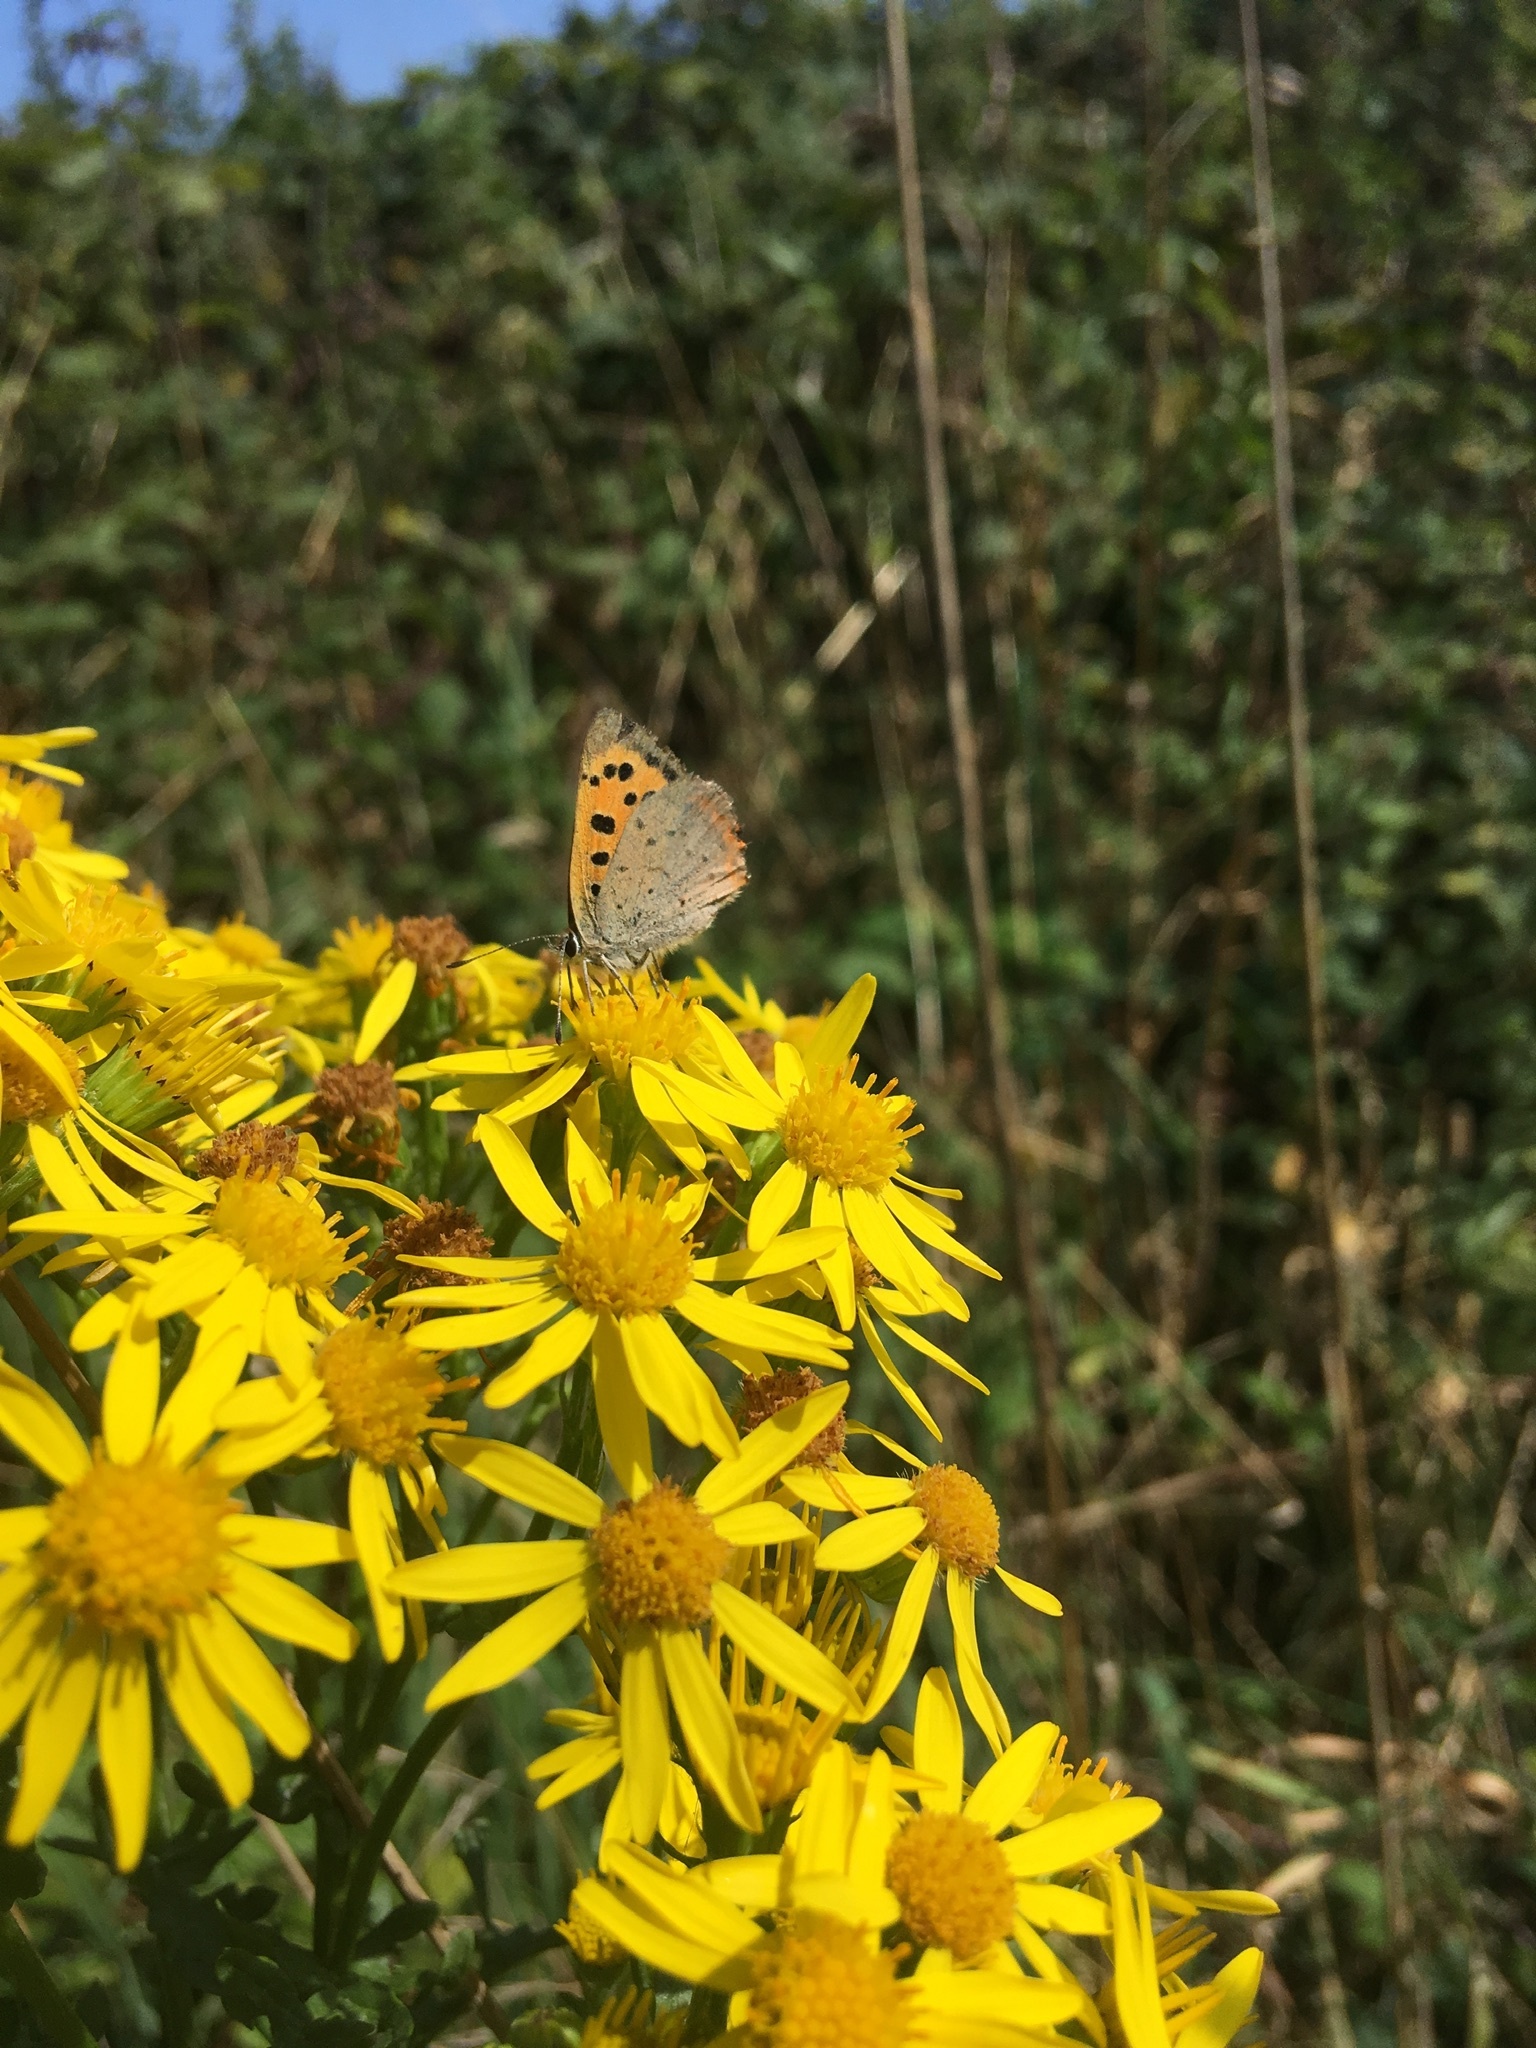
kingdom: Animalia
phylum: Arthropoda
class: Insecta
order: Lepidoptera
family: Lycaenidae
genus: Lycaena
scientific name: Lycaena phlaeas
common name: Small copper
